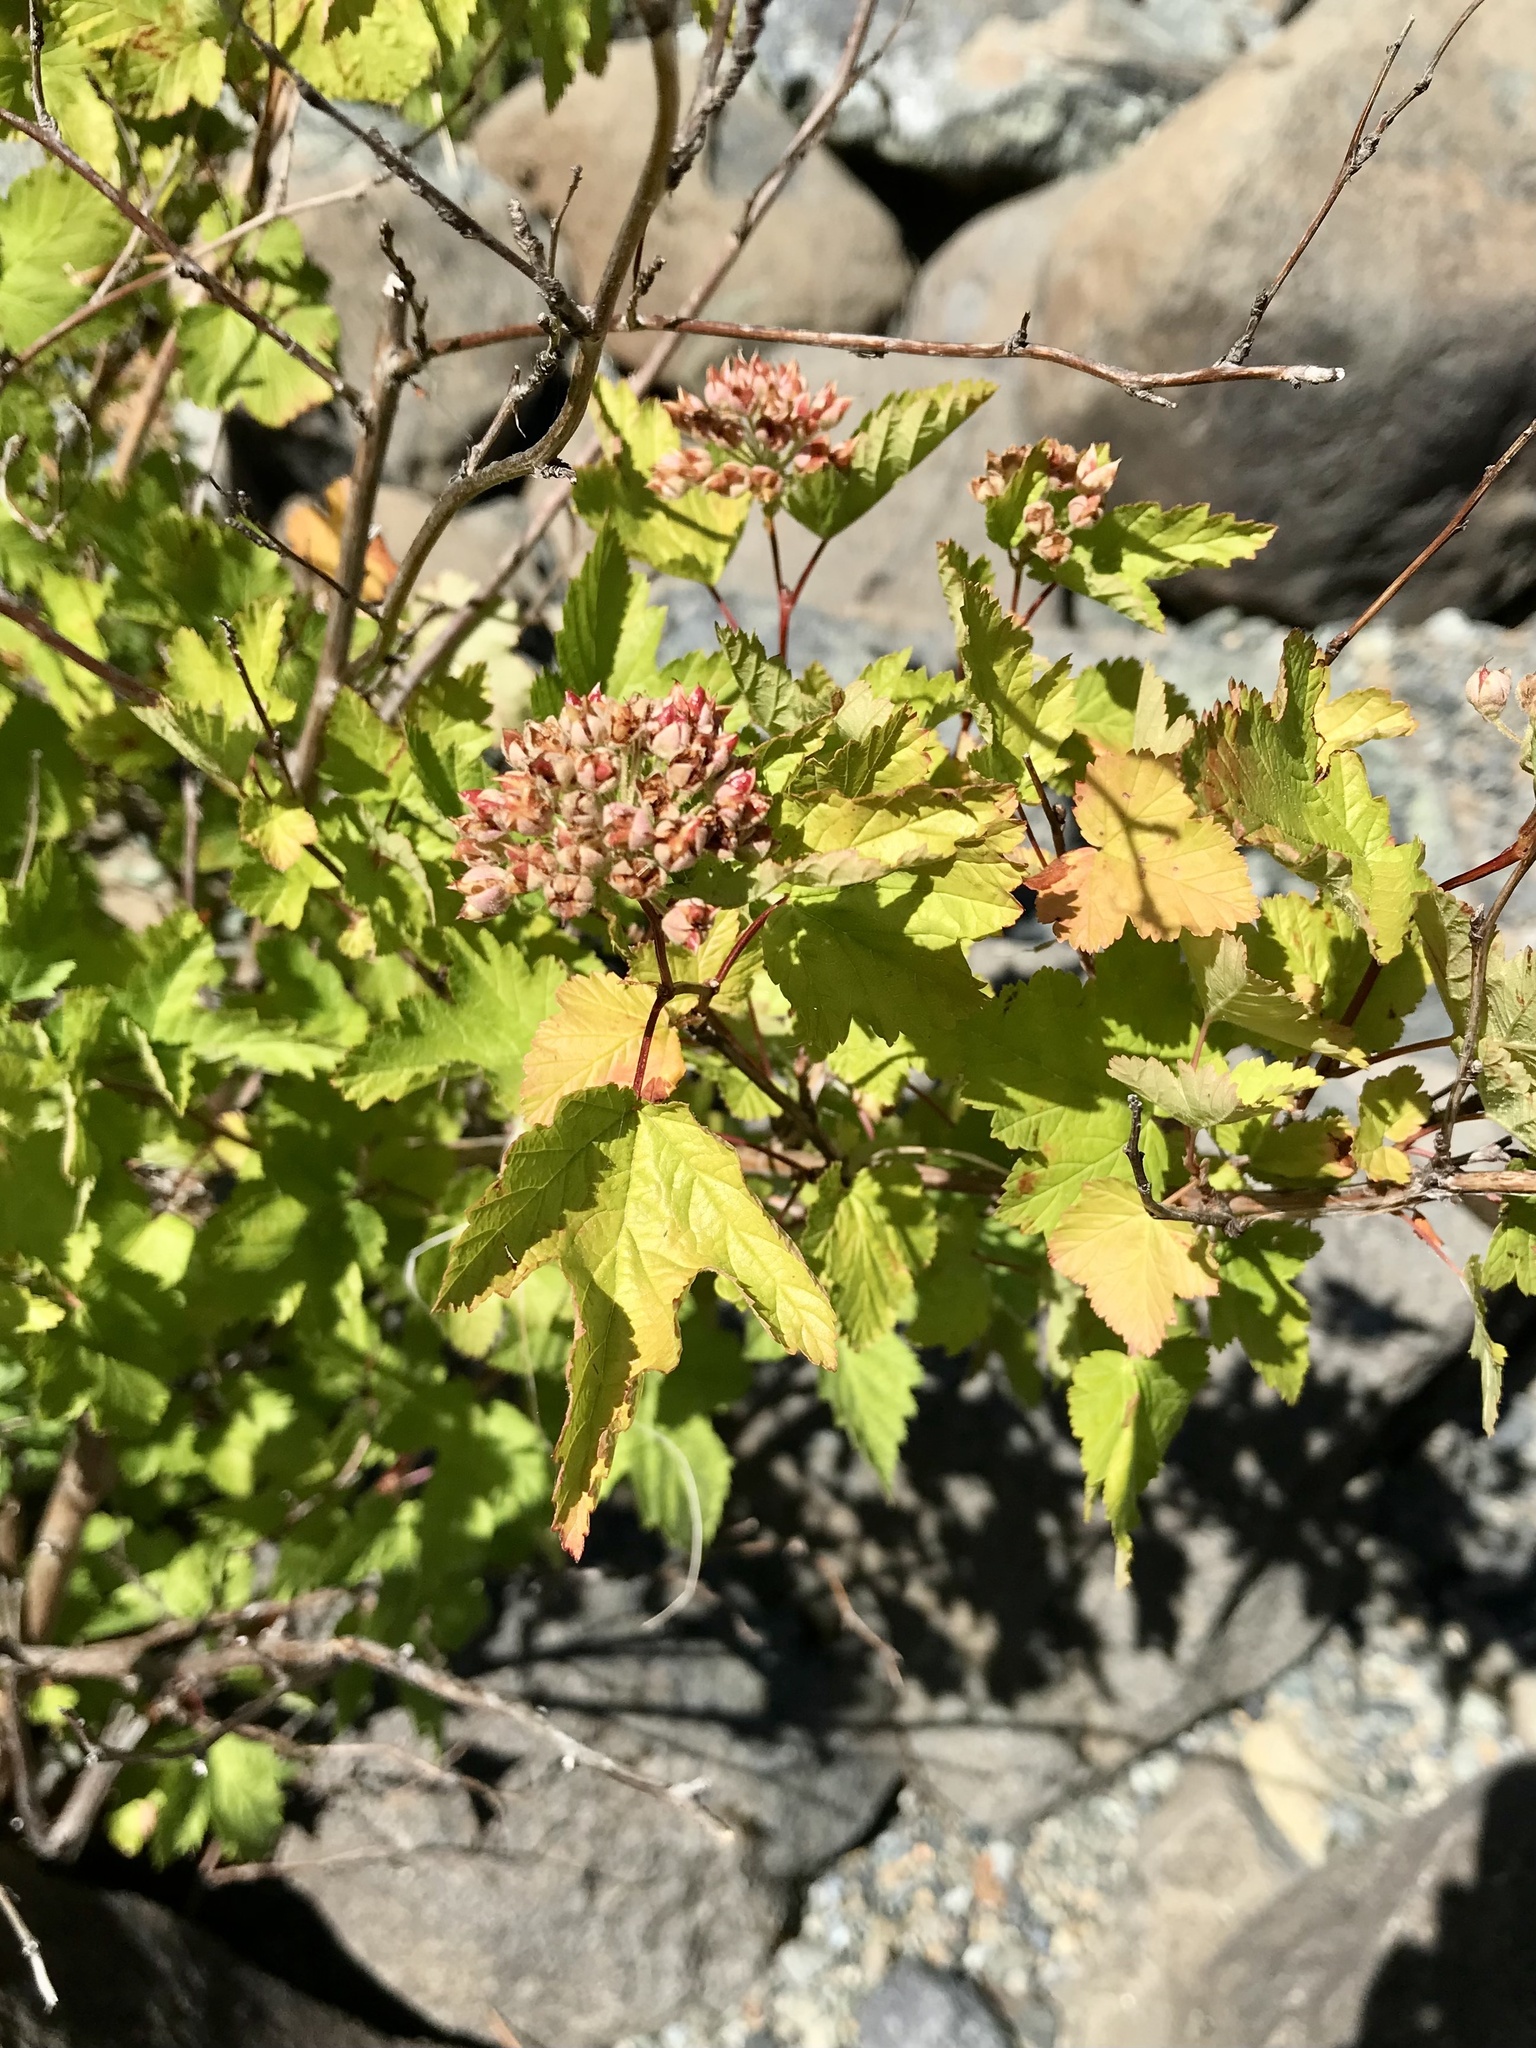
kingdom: Plantae
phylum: Tracheophyta
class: Magnoliopsida
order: Rosales
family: Rosaceae
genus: Physocarpus
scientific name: Physocarpus capitatus
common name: Pacific ninebark
